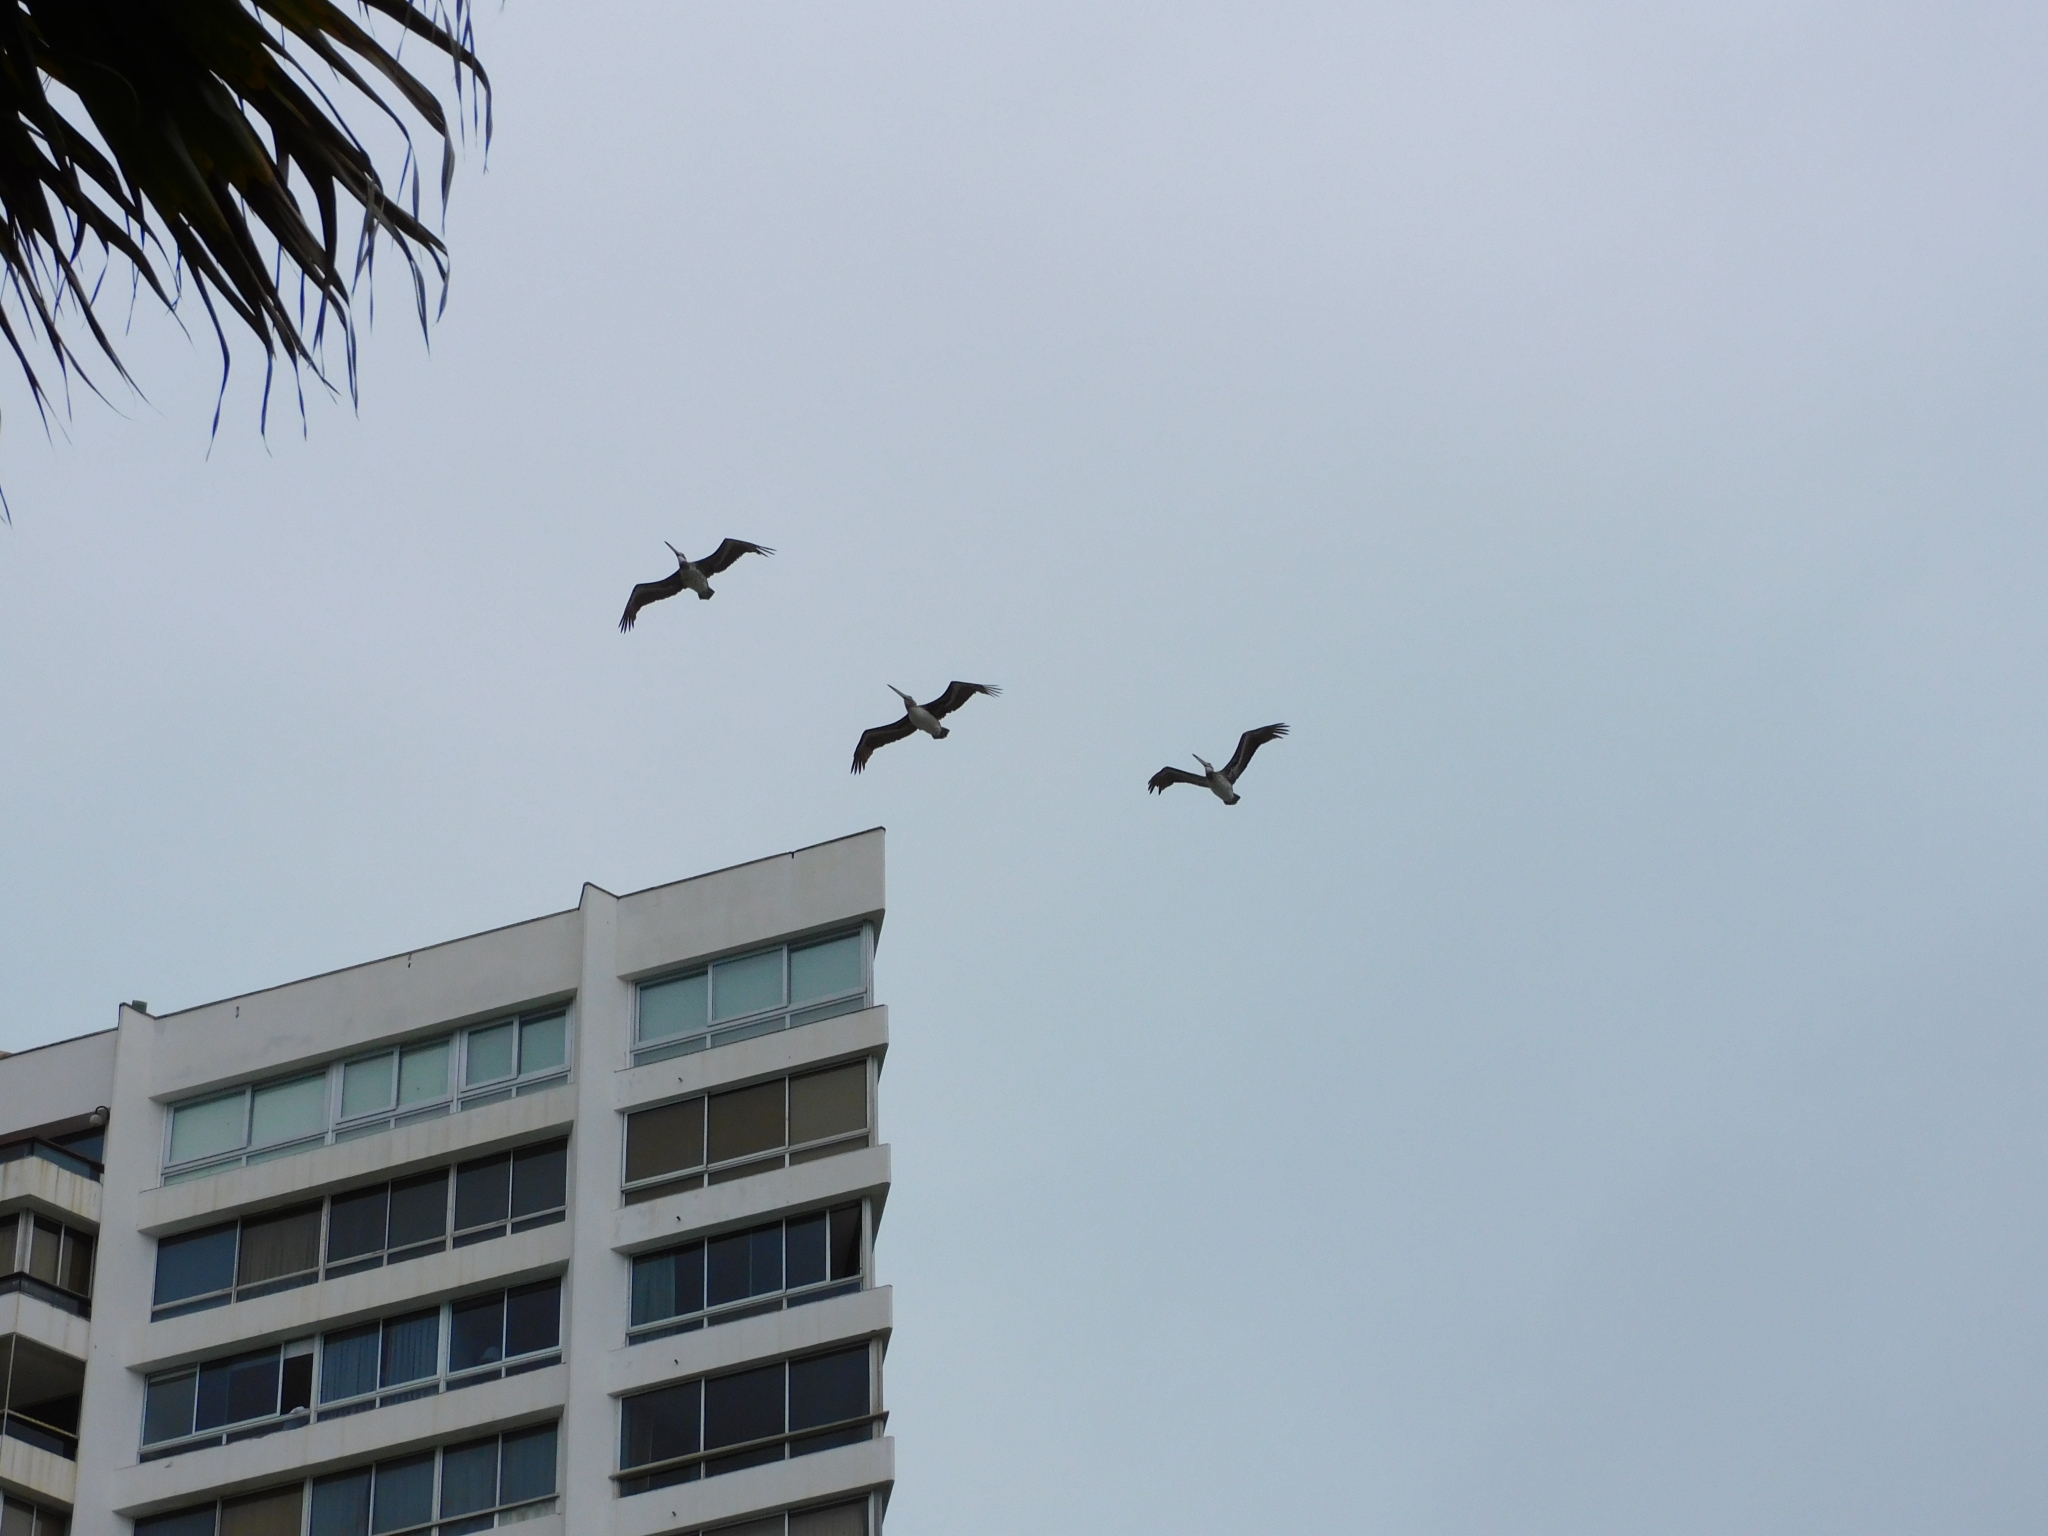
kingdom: Animalia
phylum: Chordata
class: Aves
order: Pelecaniformes
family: Pelecanidae
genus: Pelecanus
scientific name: Pelecanus thagus
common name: Peruvian pelican
